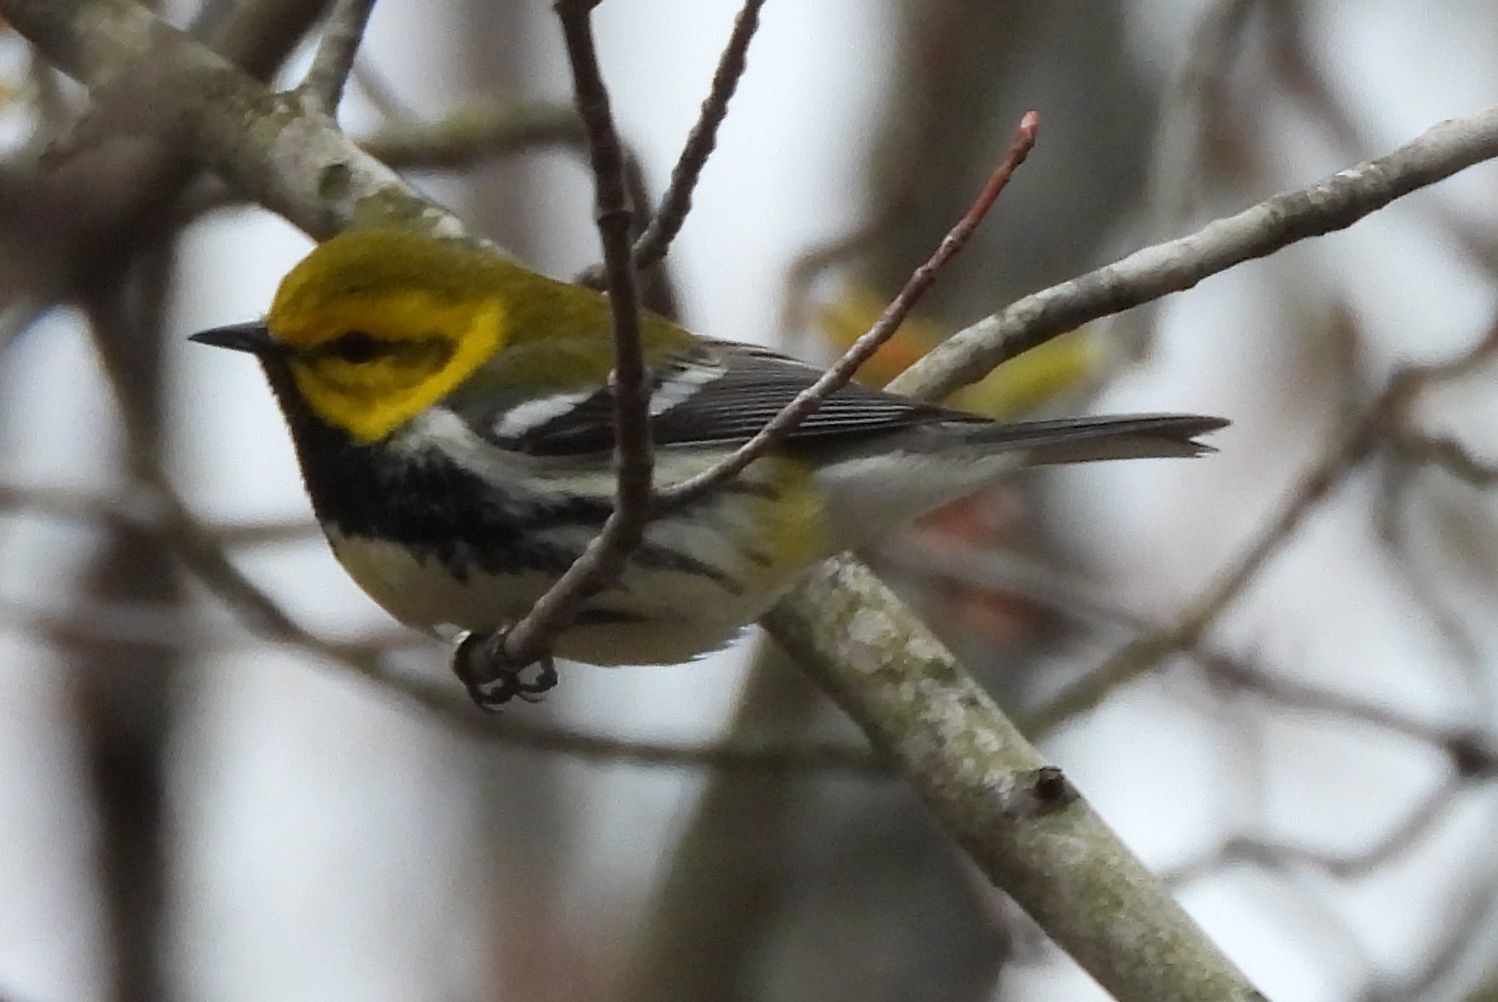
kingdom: Animalia
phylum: Chordata
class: Aves
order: Passeriformes
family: Parulidae
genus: Setophaga
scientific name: Setophaga virens
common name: Black-throated green warbler
